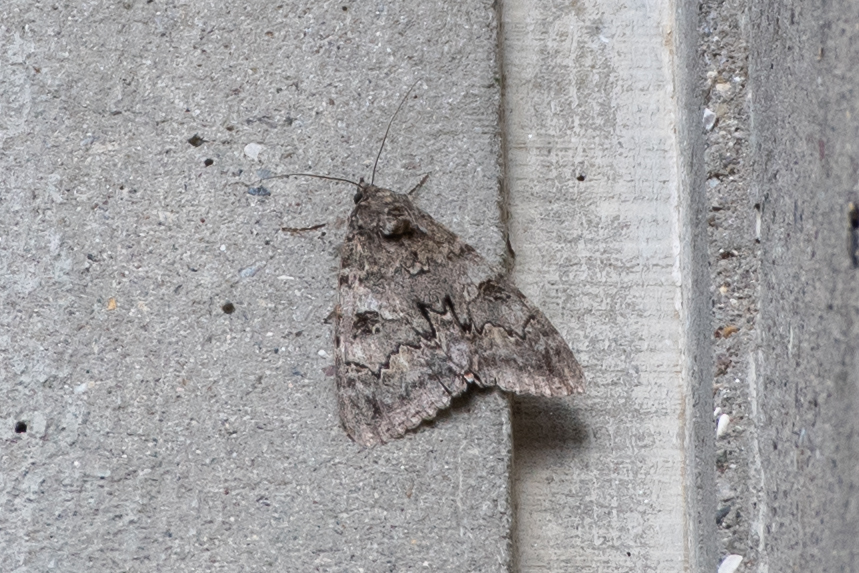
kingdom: Animalia
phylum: Arthropoda
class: Insecta
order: Lepidoptera
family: Erebidae
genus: Catocala
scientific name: Catocala nupta
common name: Red underwing
